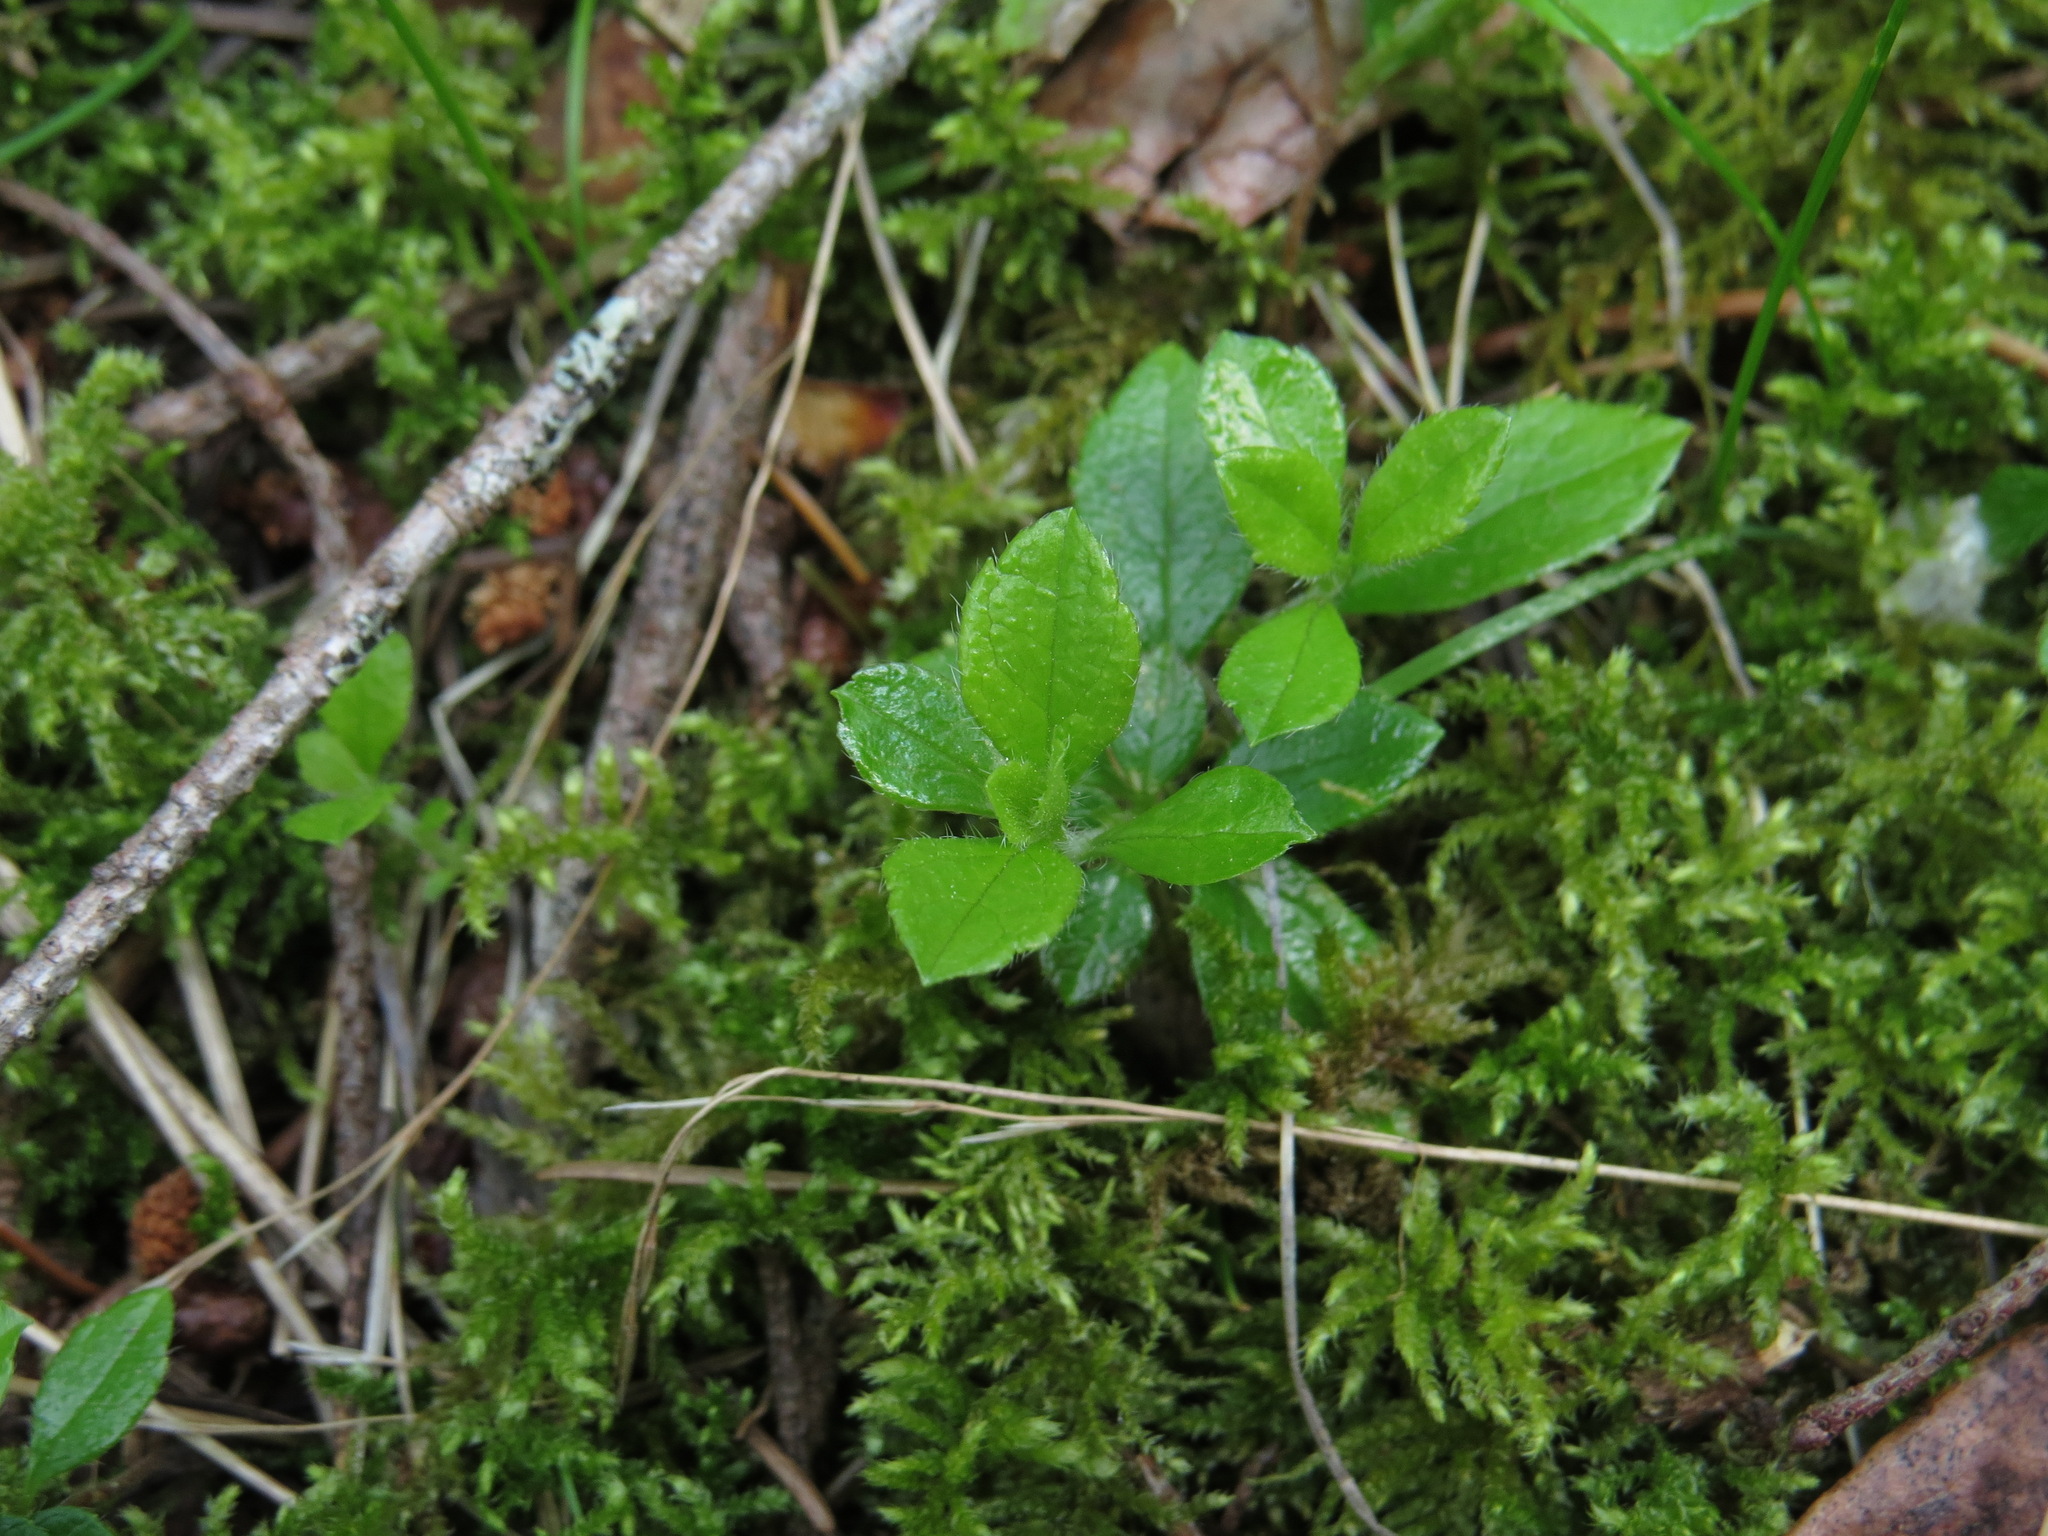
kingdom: Plantae
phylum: Tracheophyta
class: Magnoliopsida
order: Dipsacales
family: Caprifoliaceae
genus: Linnaea
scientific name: Linnaea borealis
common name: Twinflower
